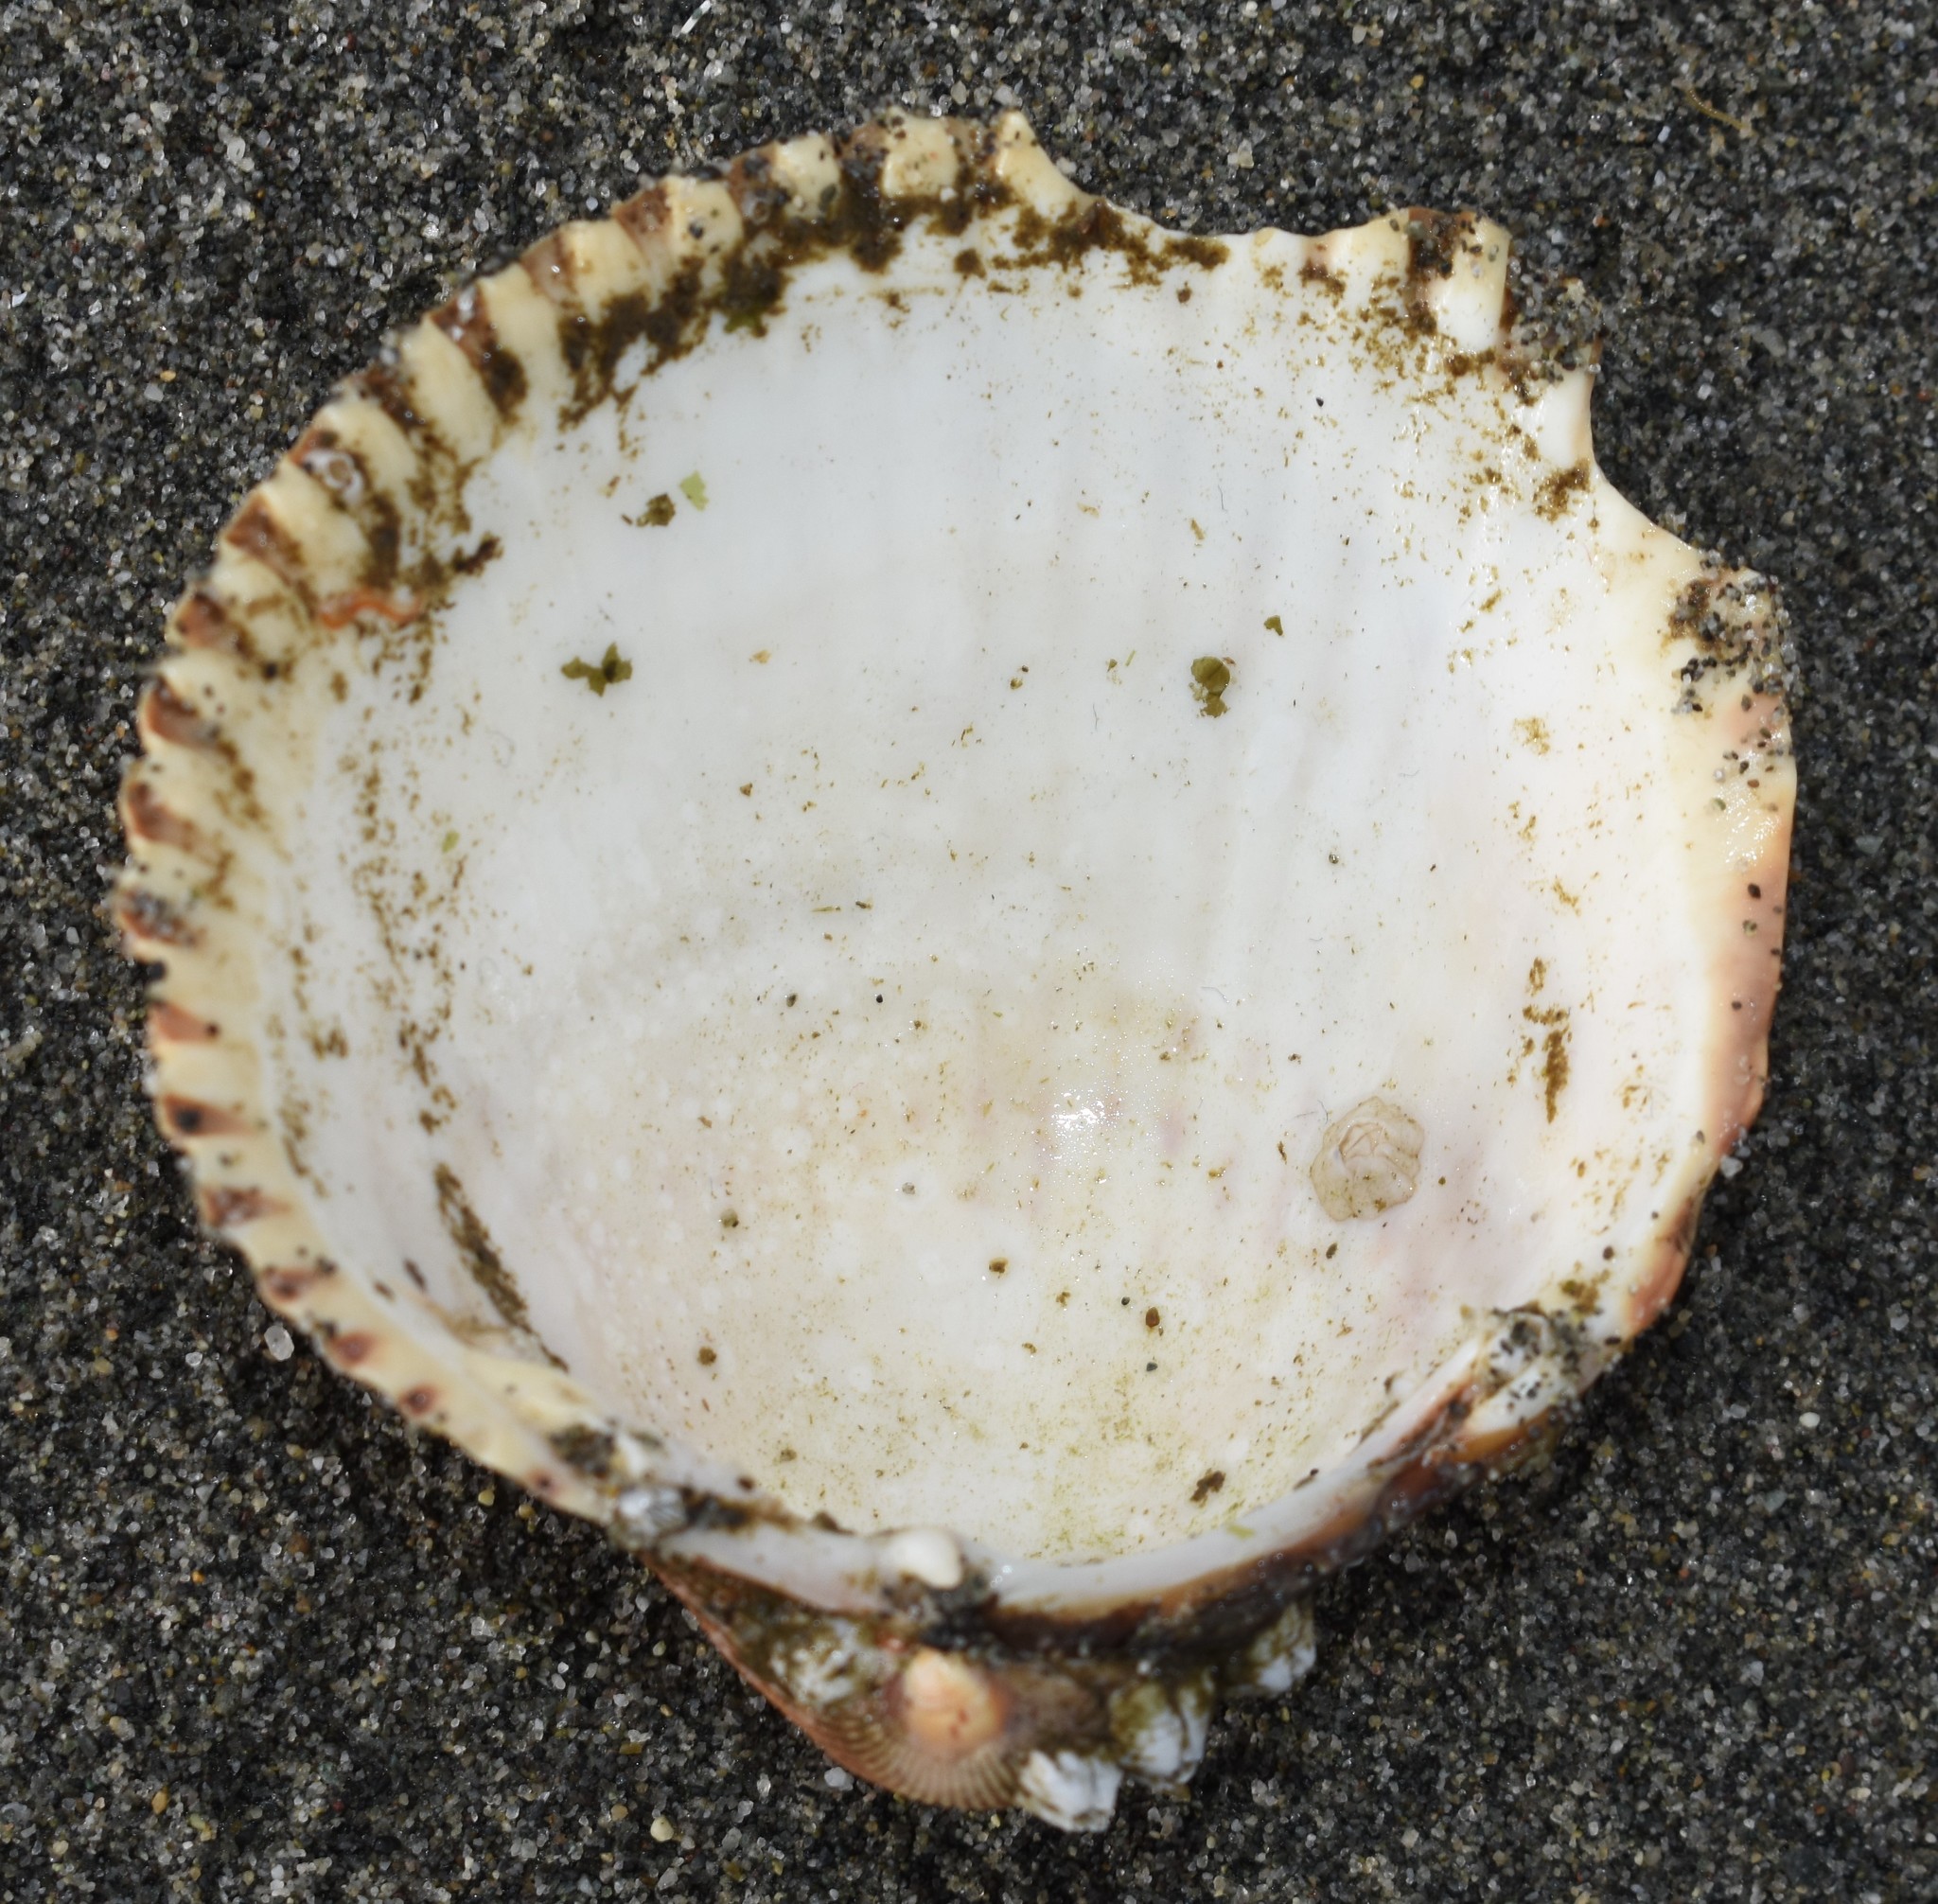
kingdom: Animalia
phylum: Mollusca
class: Bivalvia
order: Cardiida
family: Cardiidae
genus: Clinocardium
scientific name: Clinocardium nuttallii
